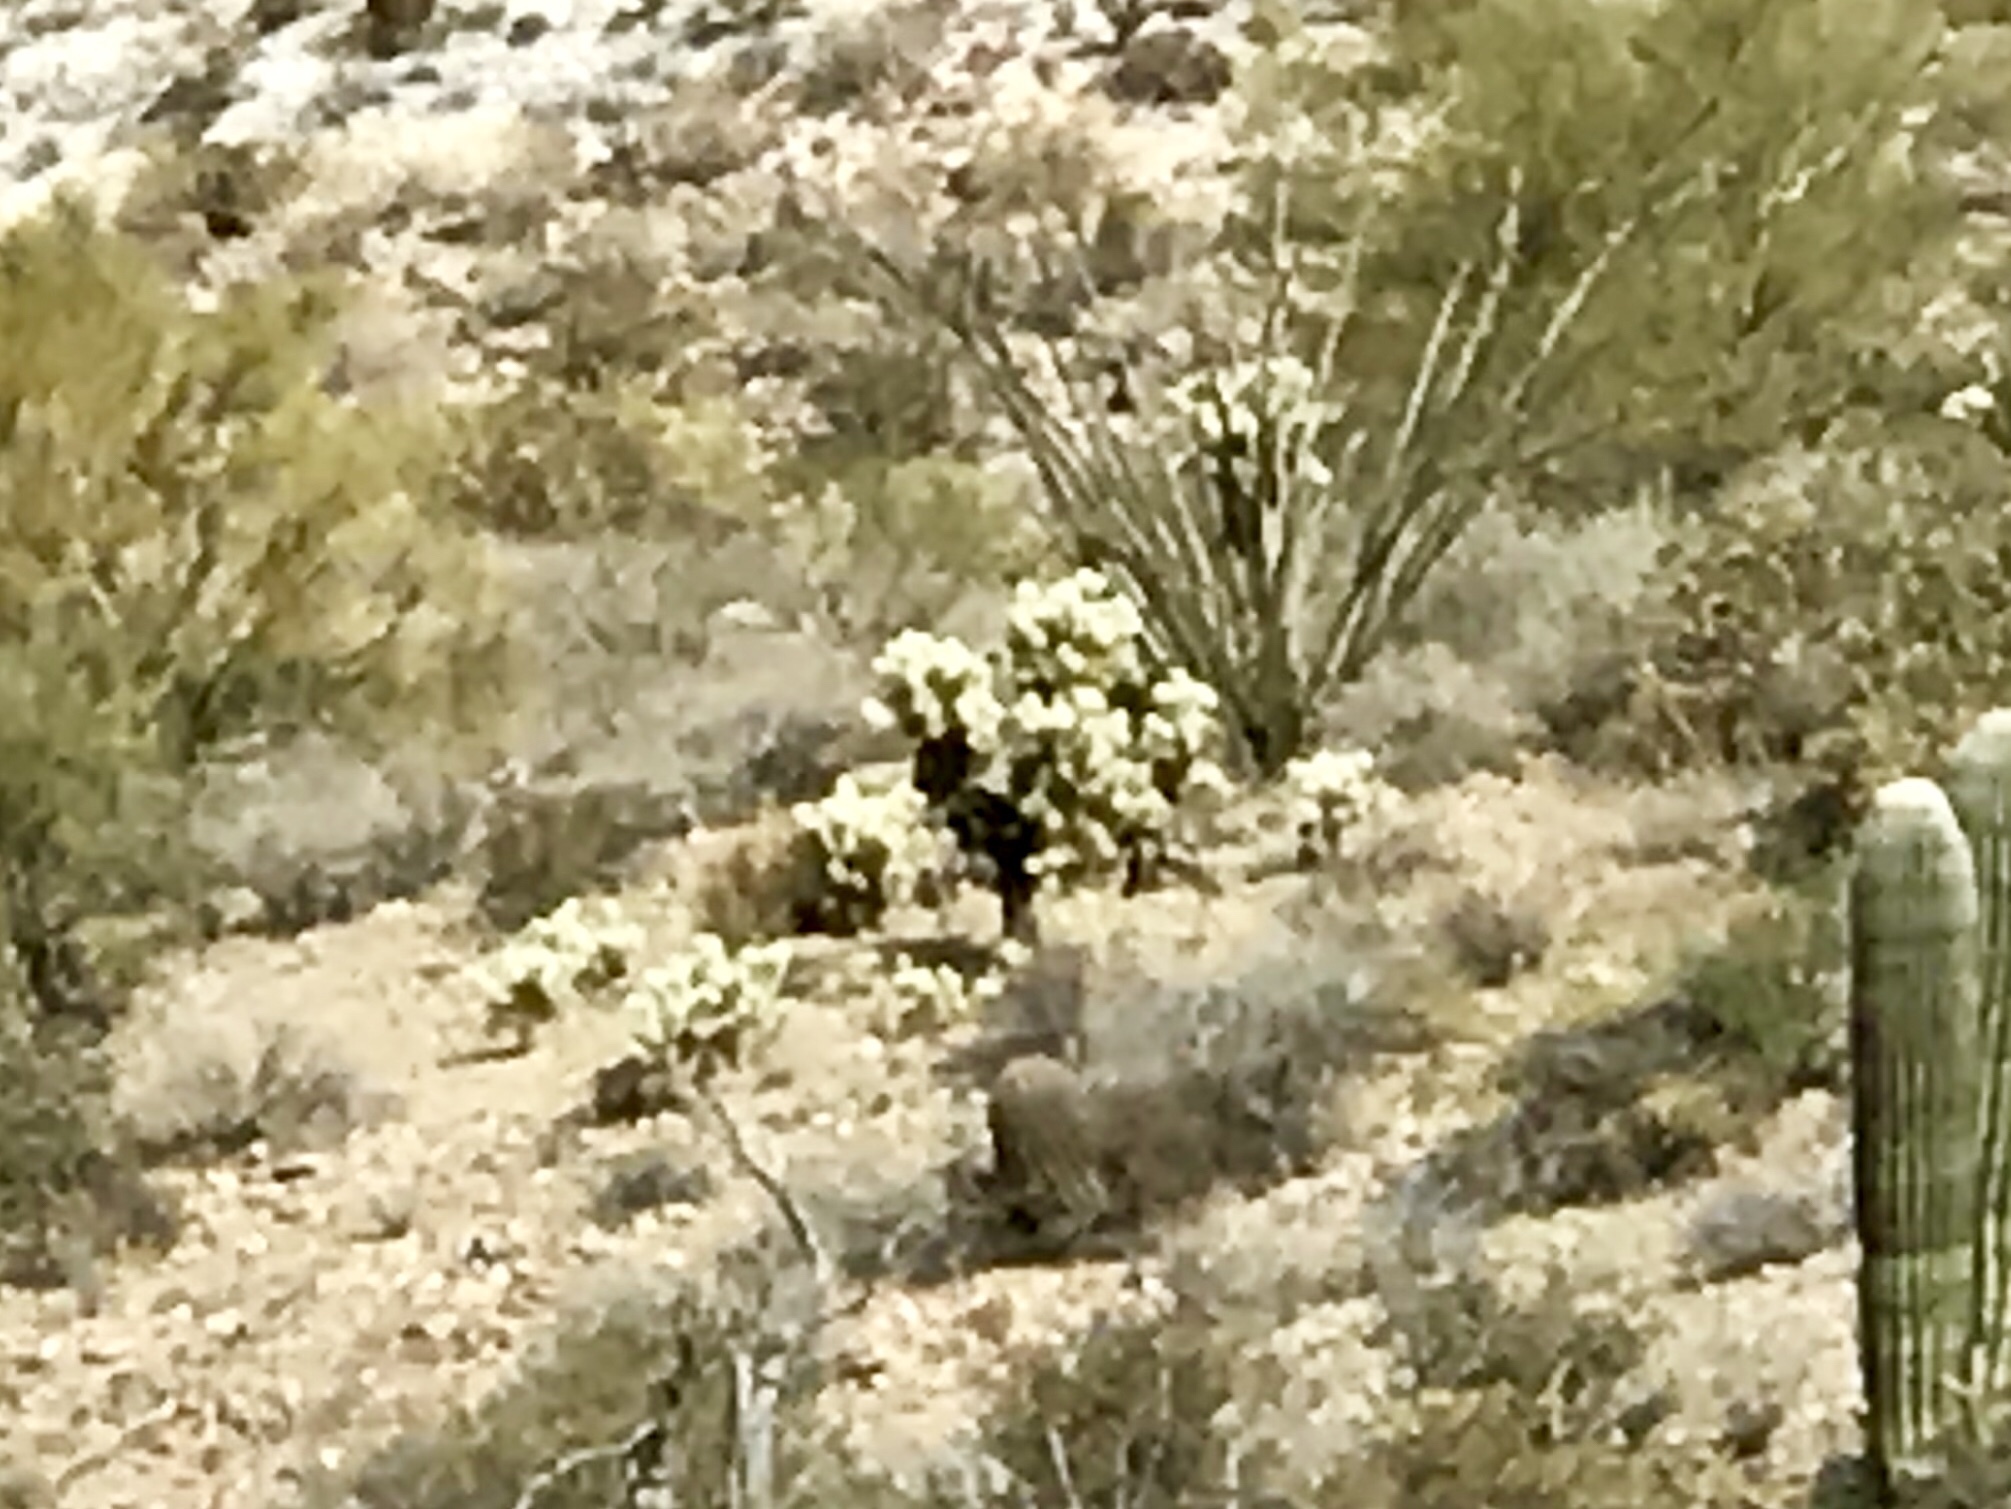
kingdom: Plantae
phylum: Tracheophyta
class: Magnoliopsida
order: Caryophyllales
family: Cactaceae
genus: Cylindropuntia
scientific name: Cylindropuntia fulgida
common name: Jumping cholla
